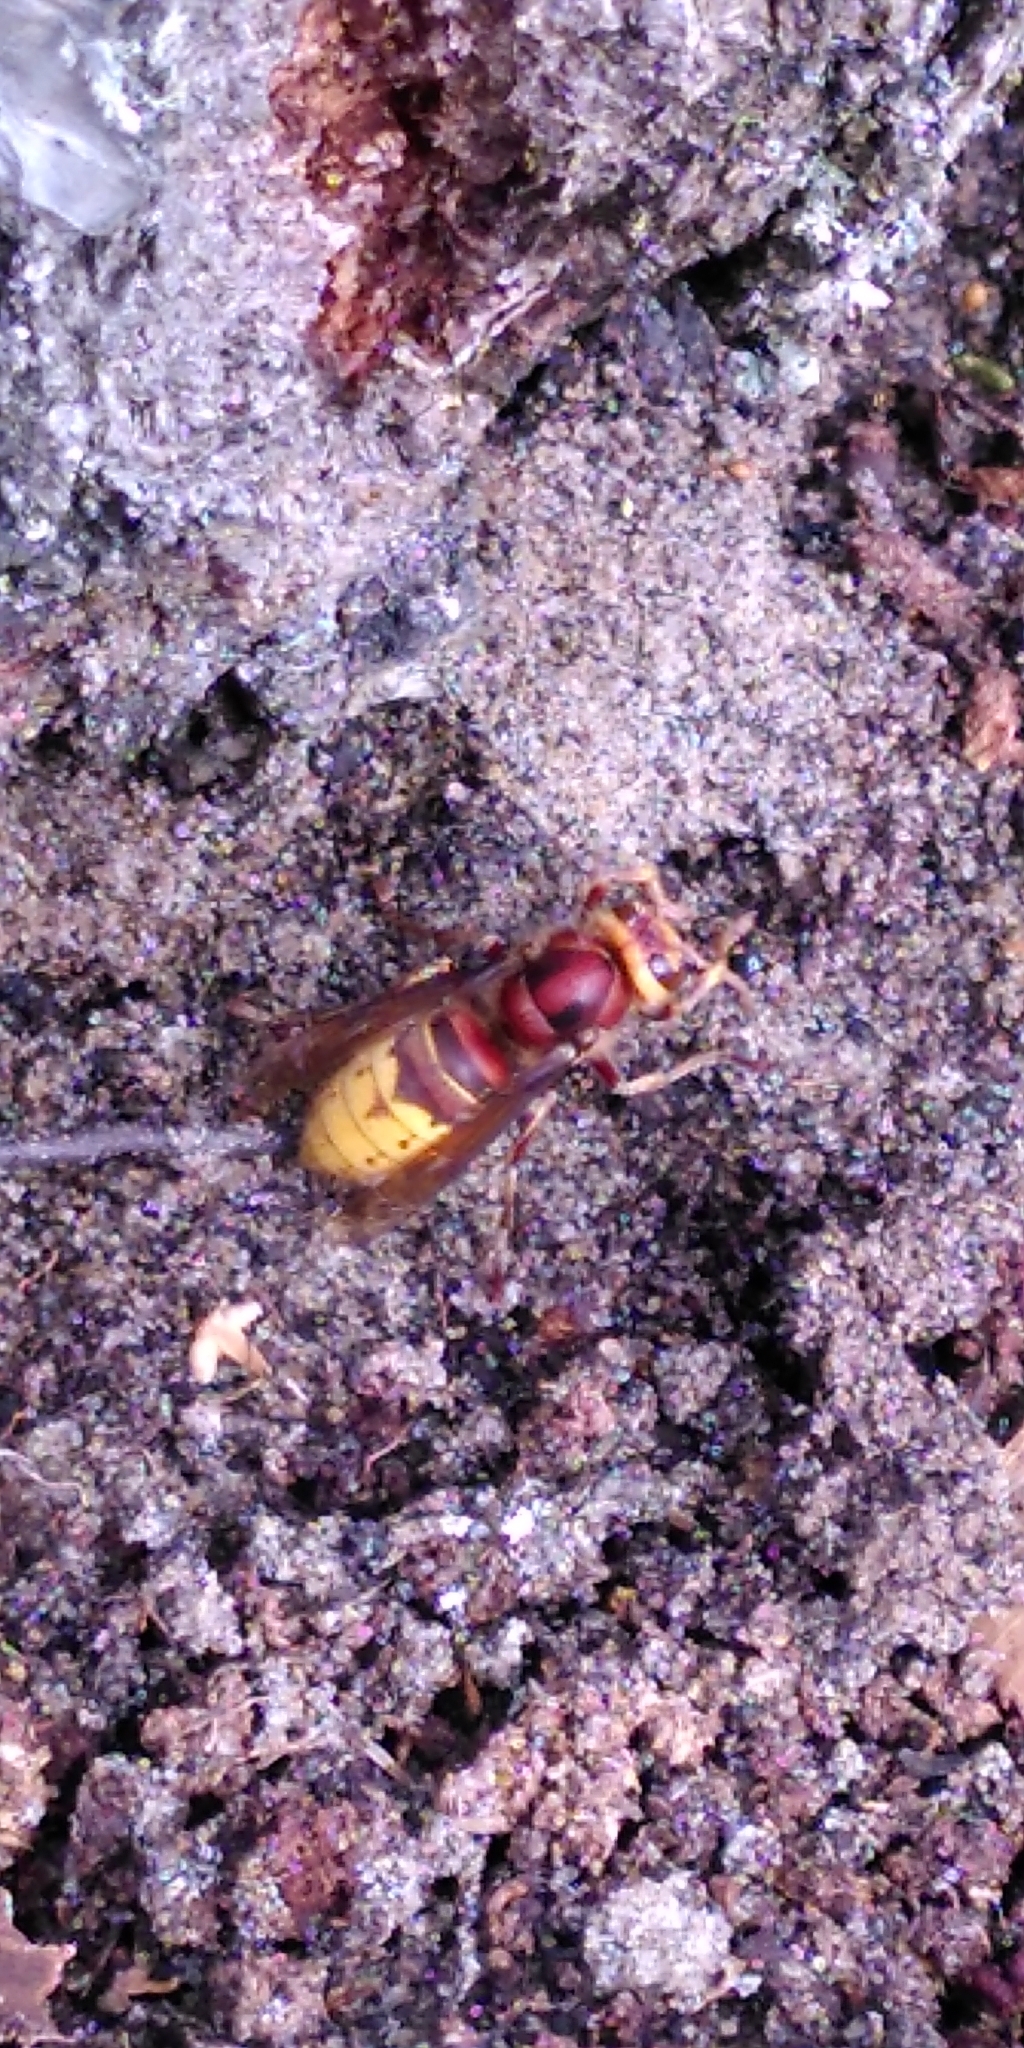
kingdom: Animalia
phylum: Arthropoda
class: Insecta
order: Hymenoptera
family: Vespidae
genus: Vespa
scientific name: Vespa crabro
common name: Hornet
